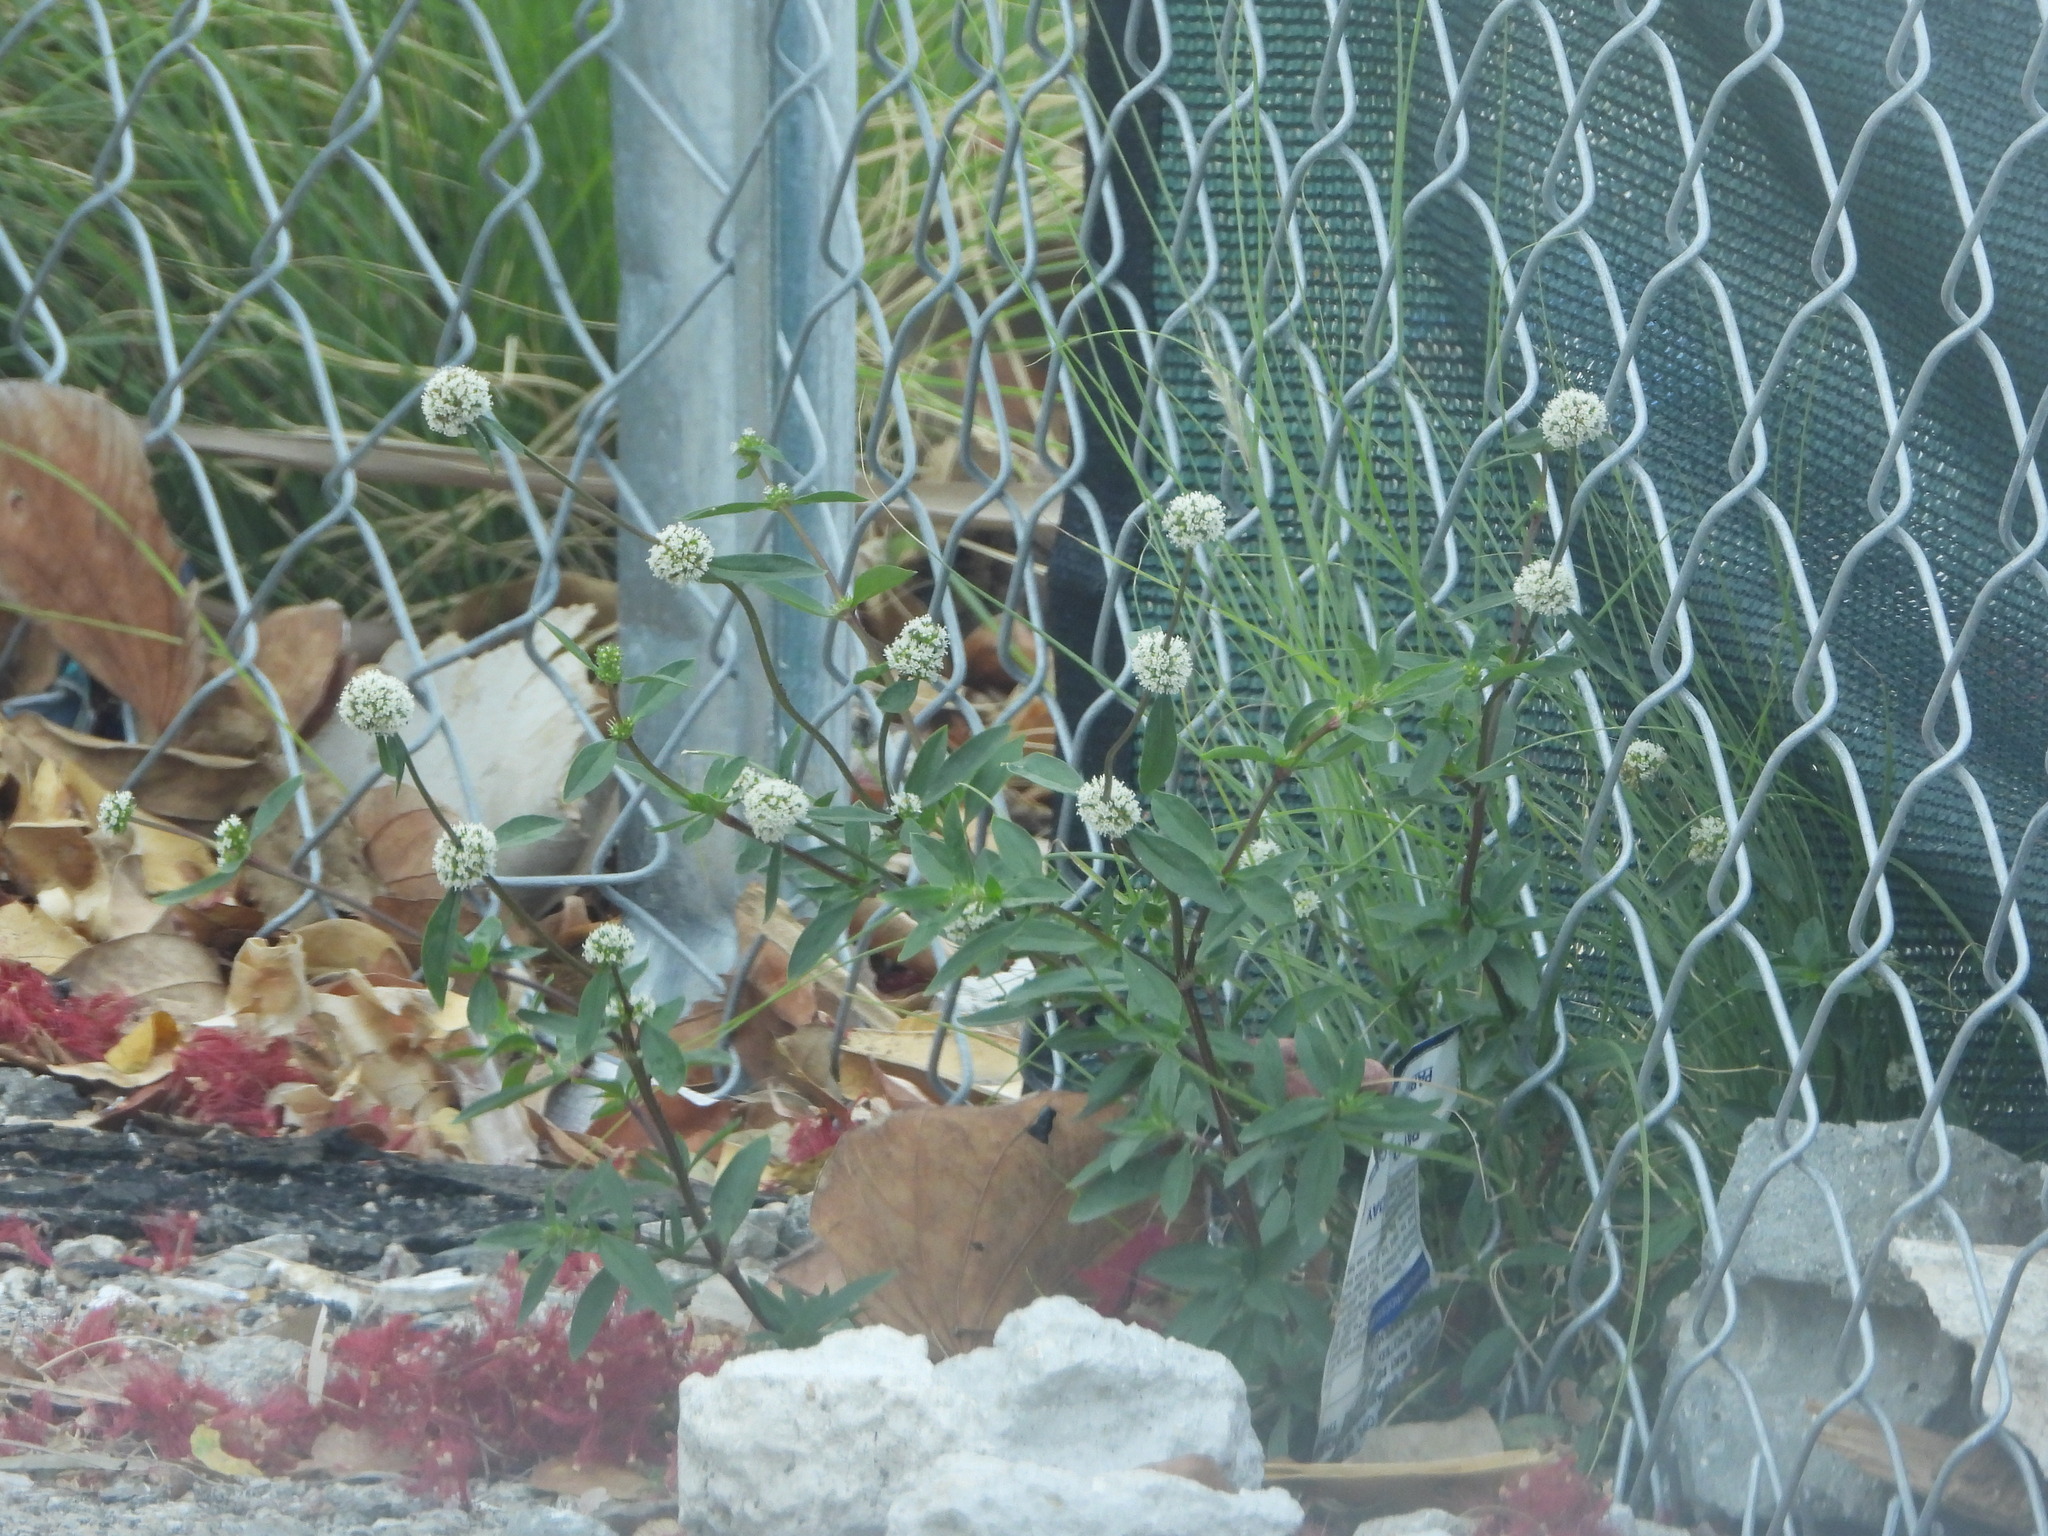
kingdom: Plantae
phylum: Tracheophyta
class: Magnoliopsida
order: Gentianales
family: Rubiaceae
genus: Spermacoce
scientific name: Spermacoce verticillata
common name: Shrubby false buttonweed
